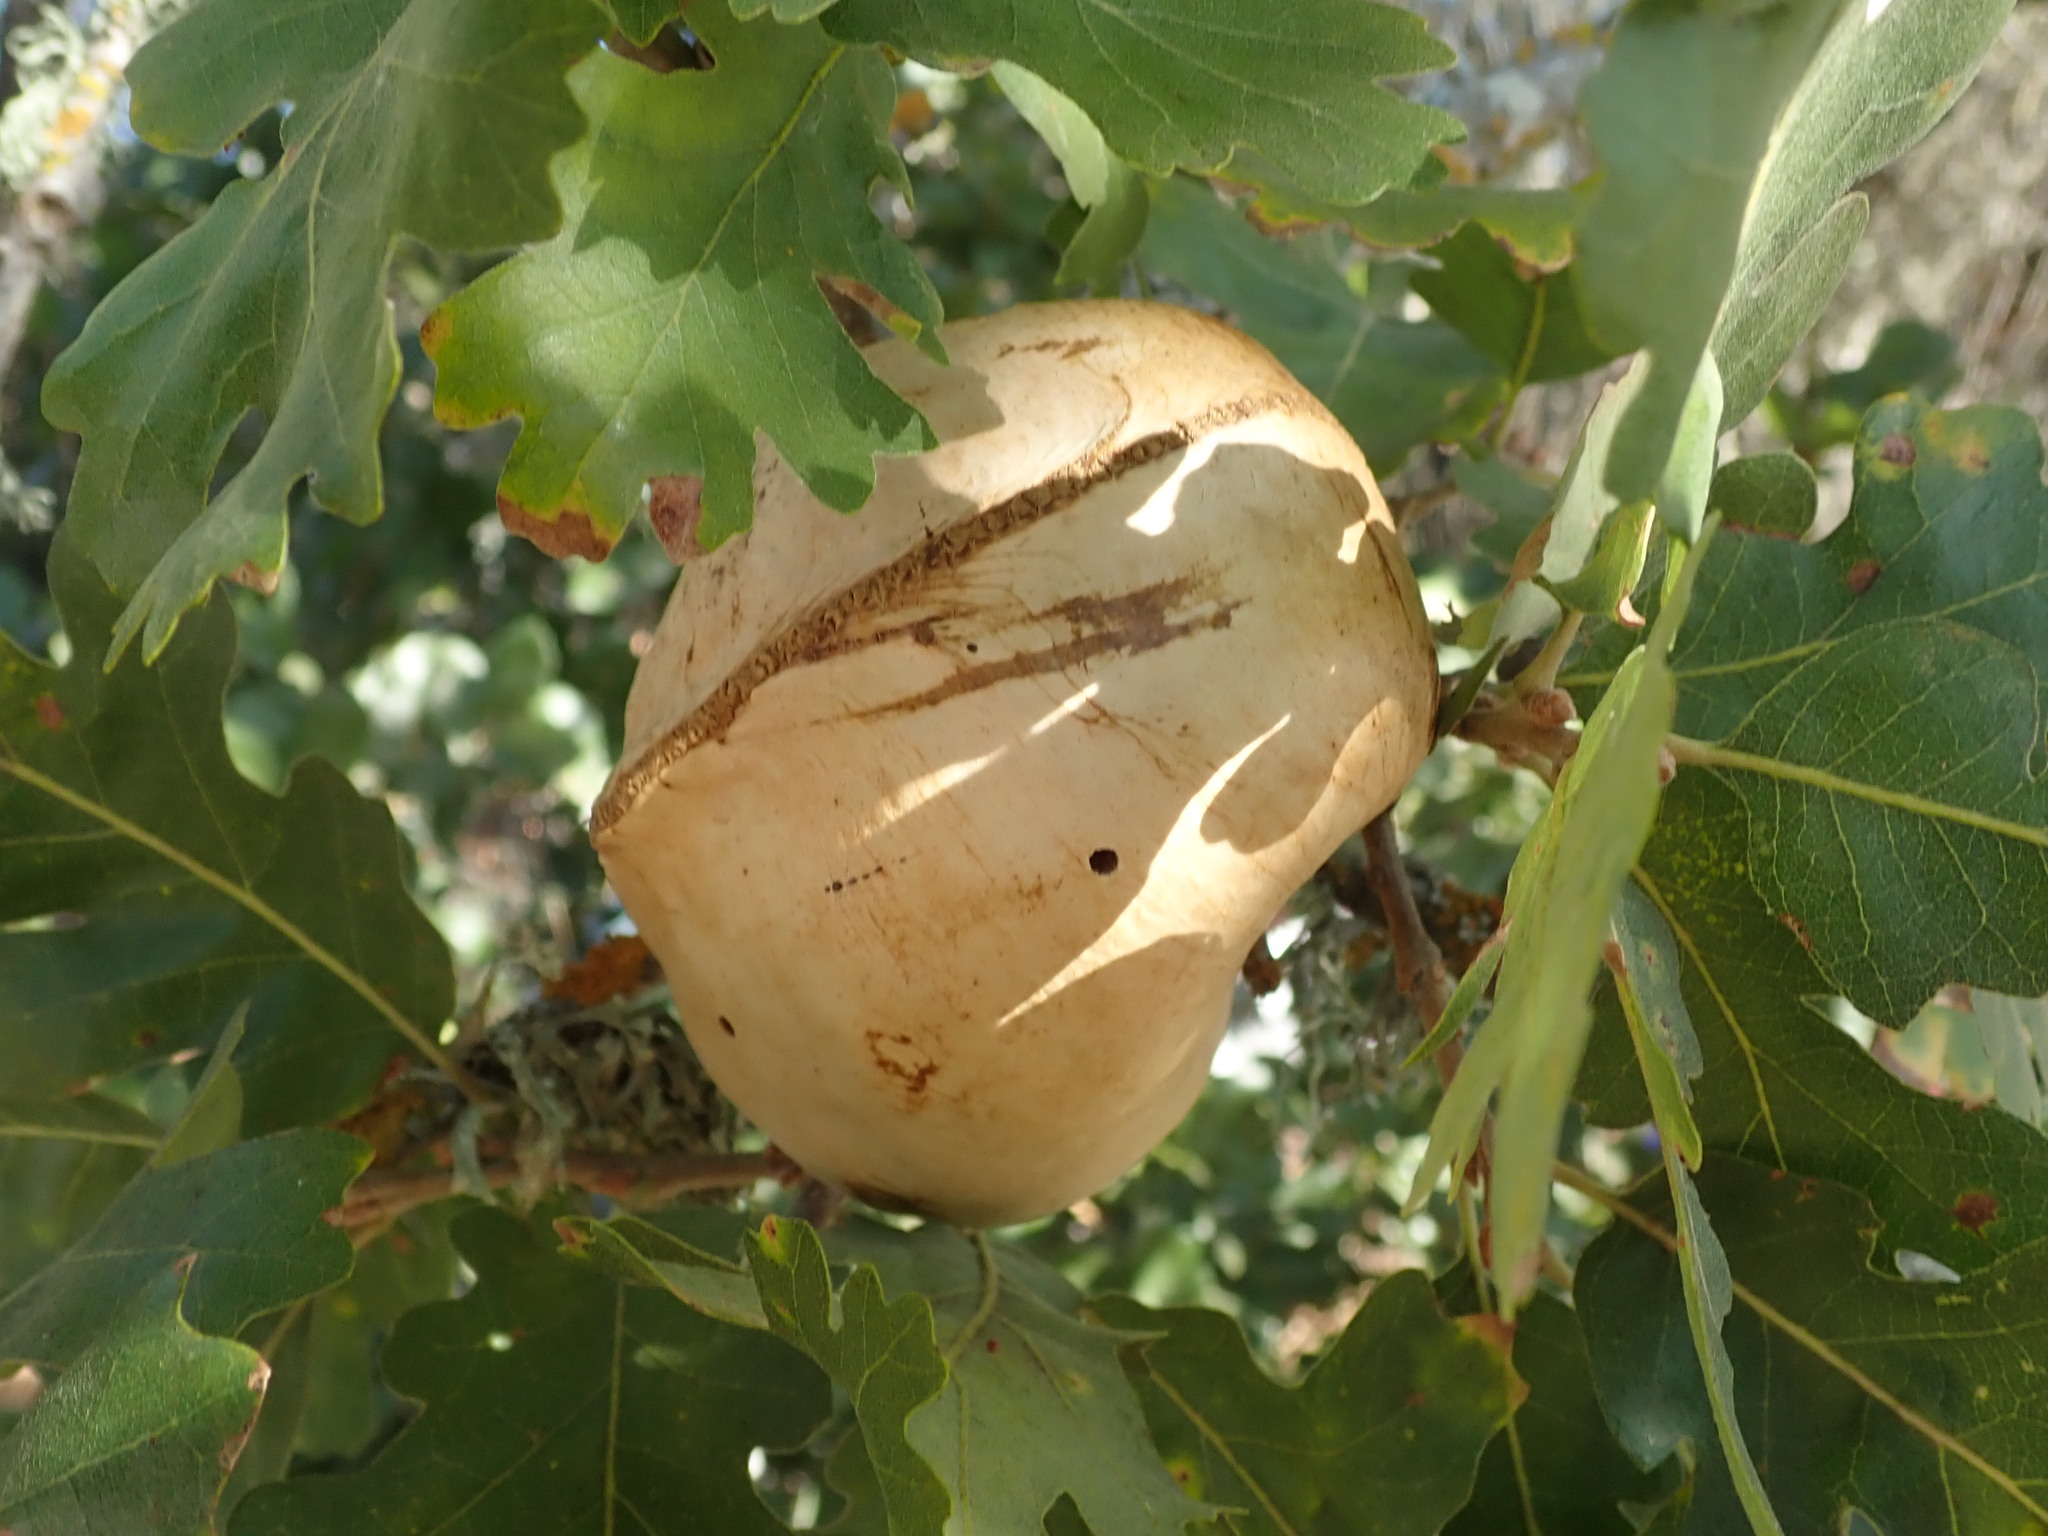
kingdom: Animalia
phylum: Arthropoda
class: Insecta
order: Hymenoptera
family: Cynipidae
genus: Andricus
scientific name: Andricus quercuscalifornicus
